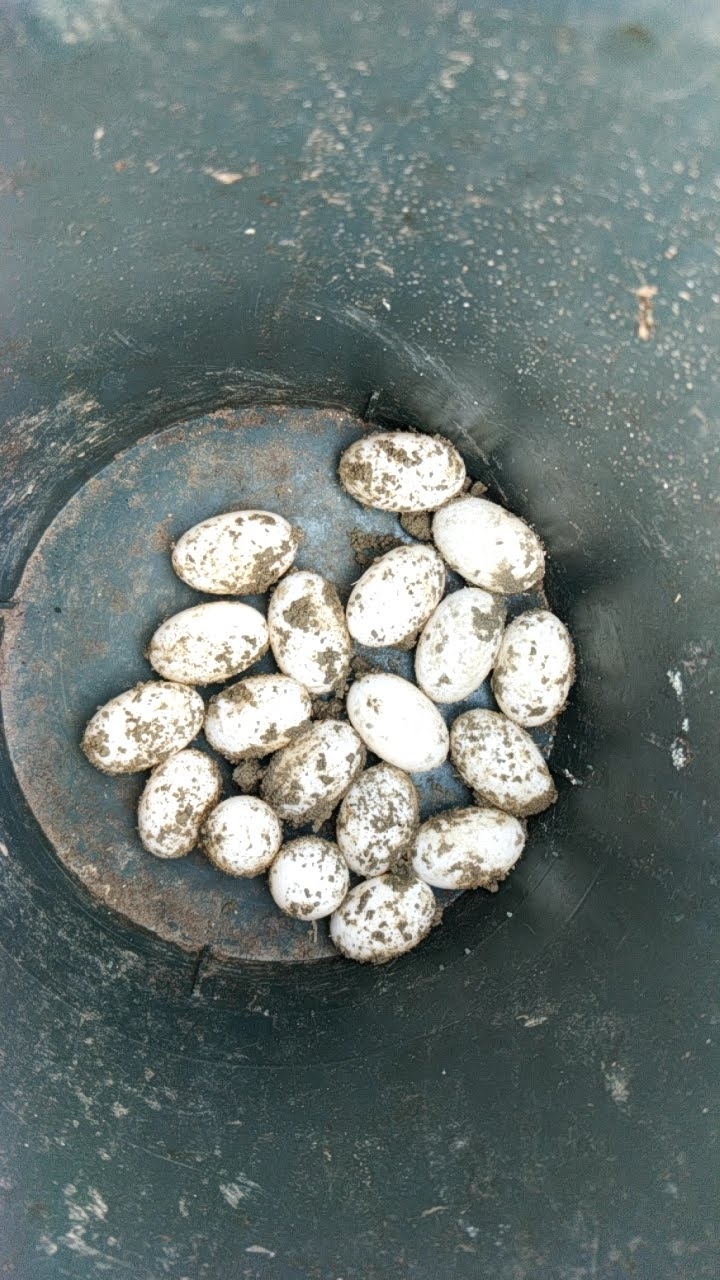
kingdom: Animalia
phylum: Chordata
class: Testudines
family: Geoemydidae
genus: Cuora
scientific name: Cuora flavomarginata
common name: Yellow-margined box turtle
